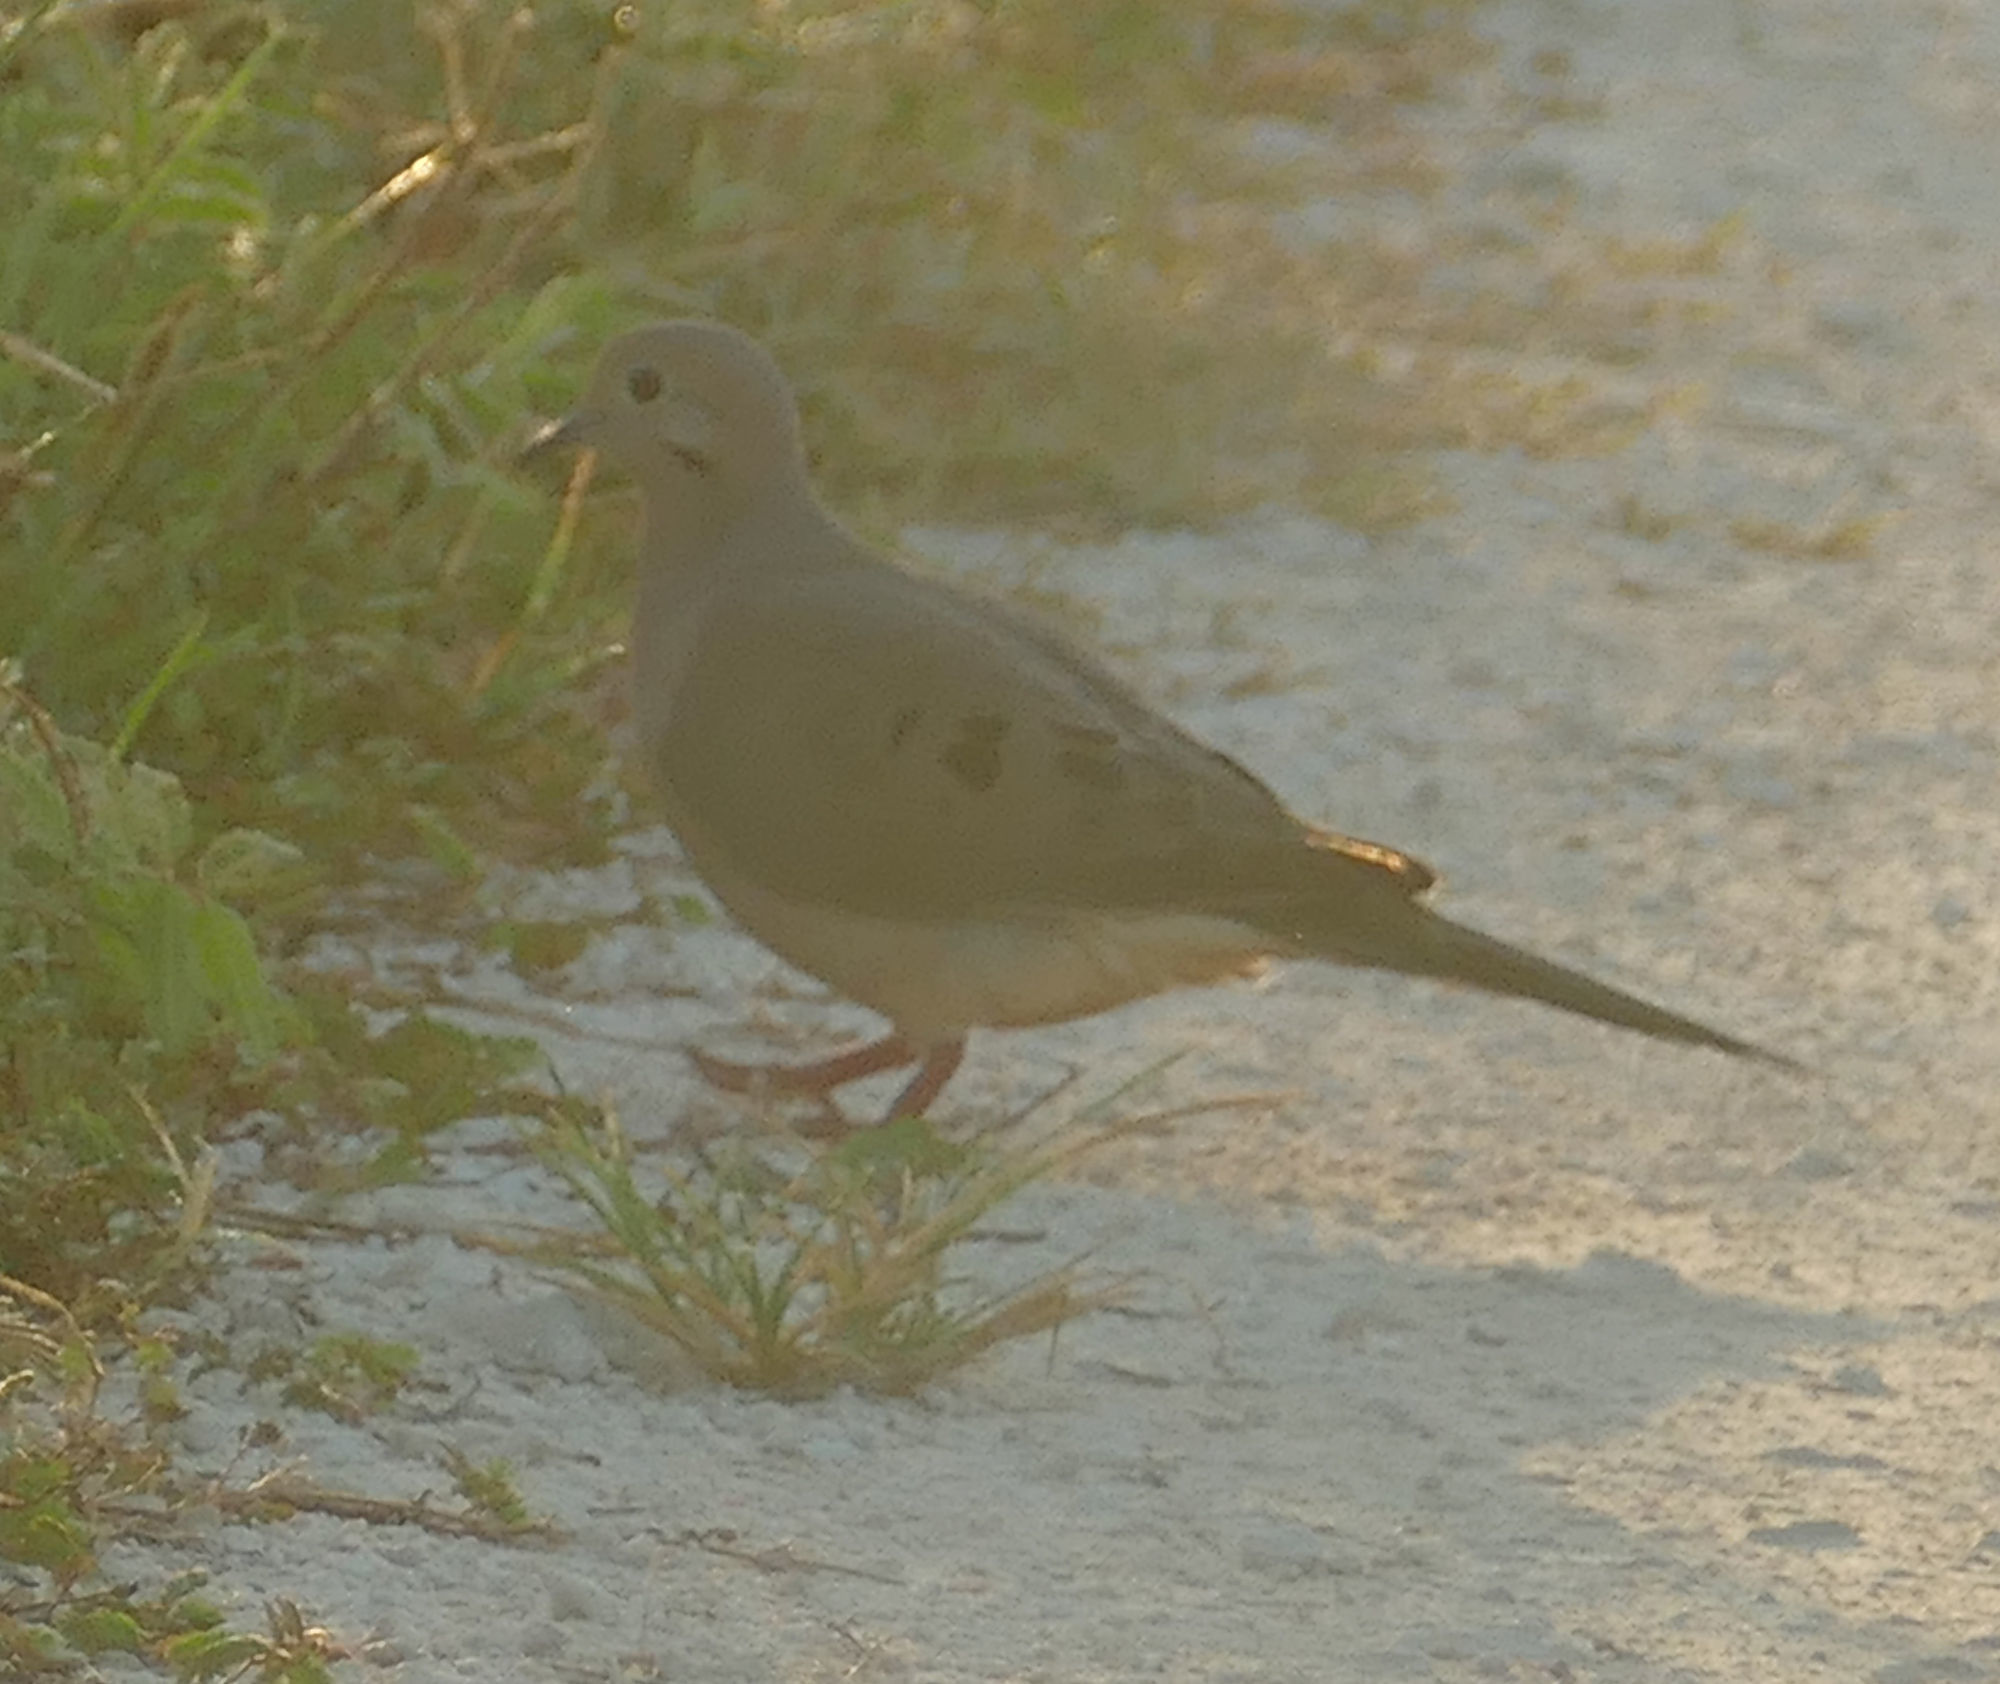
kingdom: Animalia
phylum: Chordata
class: Aves
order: Columbiformes
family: Columbidae
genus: Zenaida
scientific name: Zenaida macroura
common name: Mourning dove
